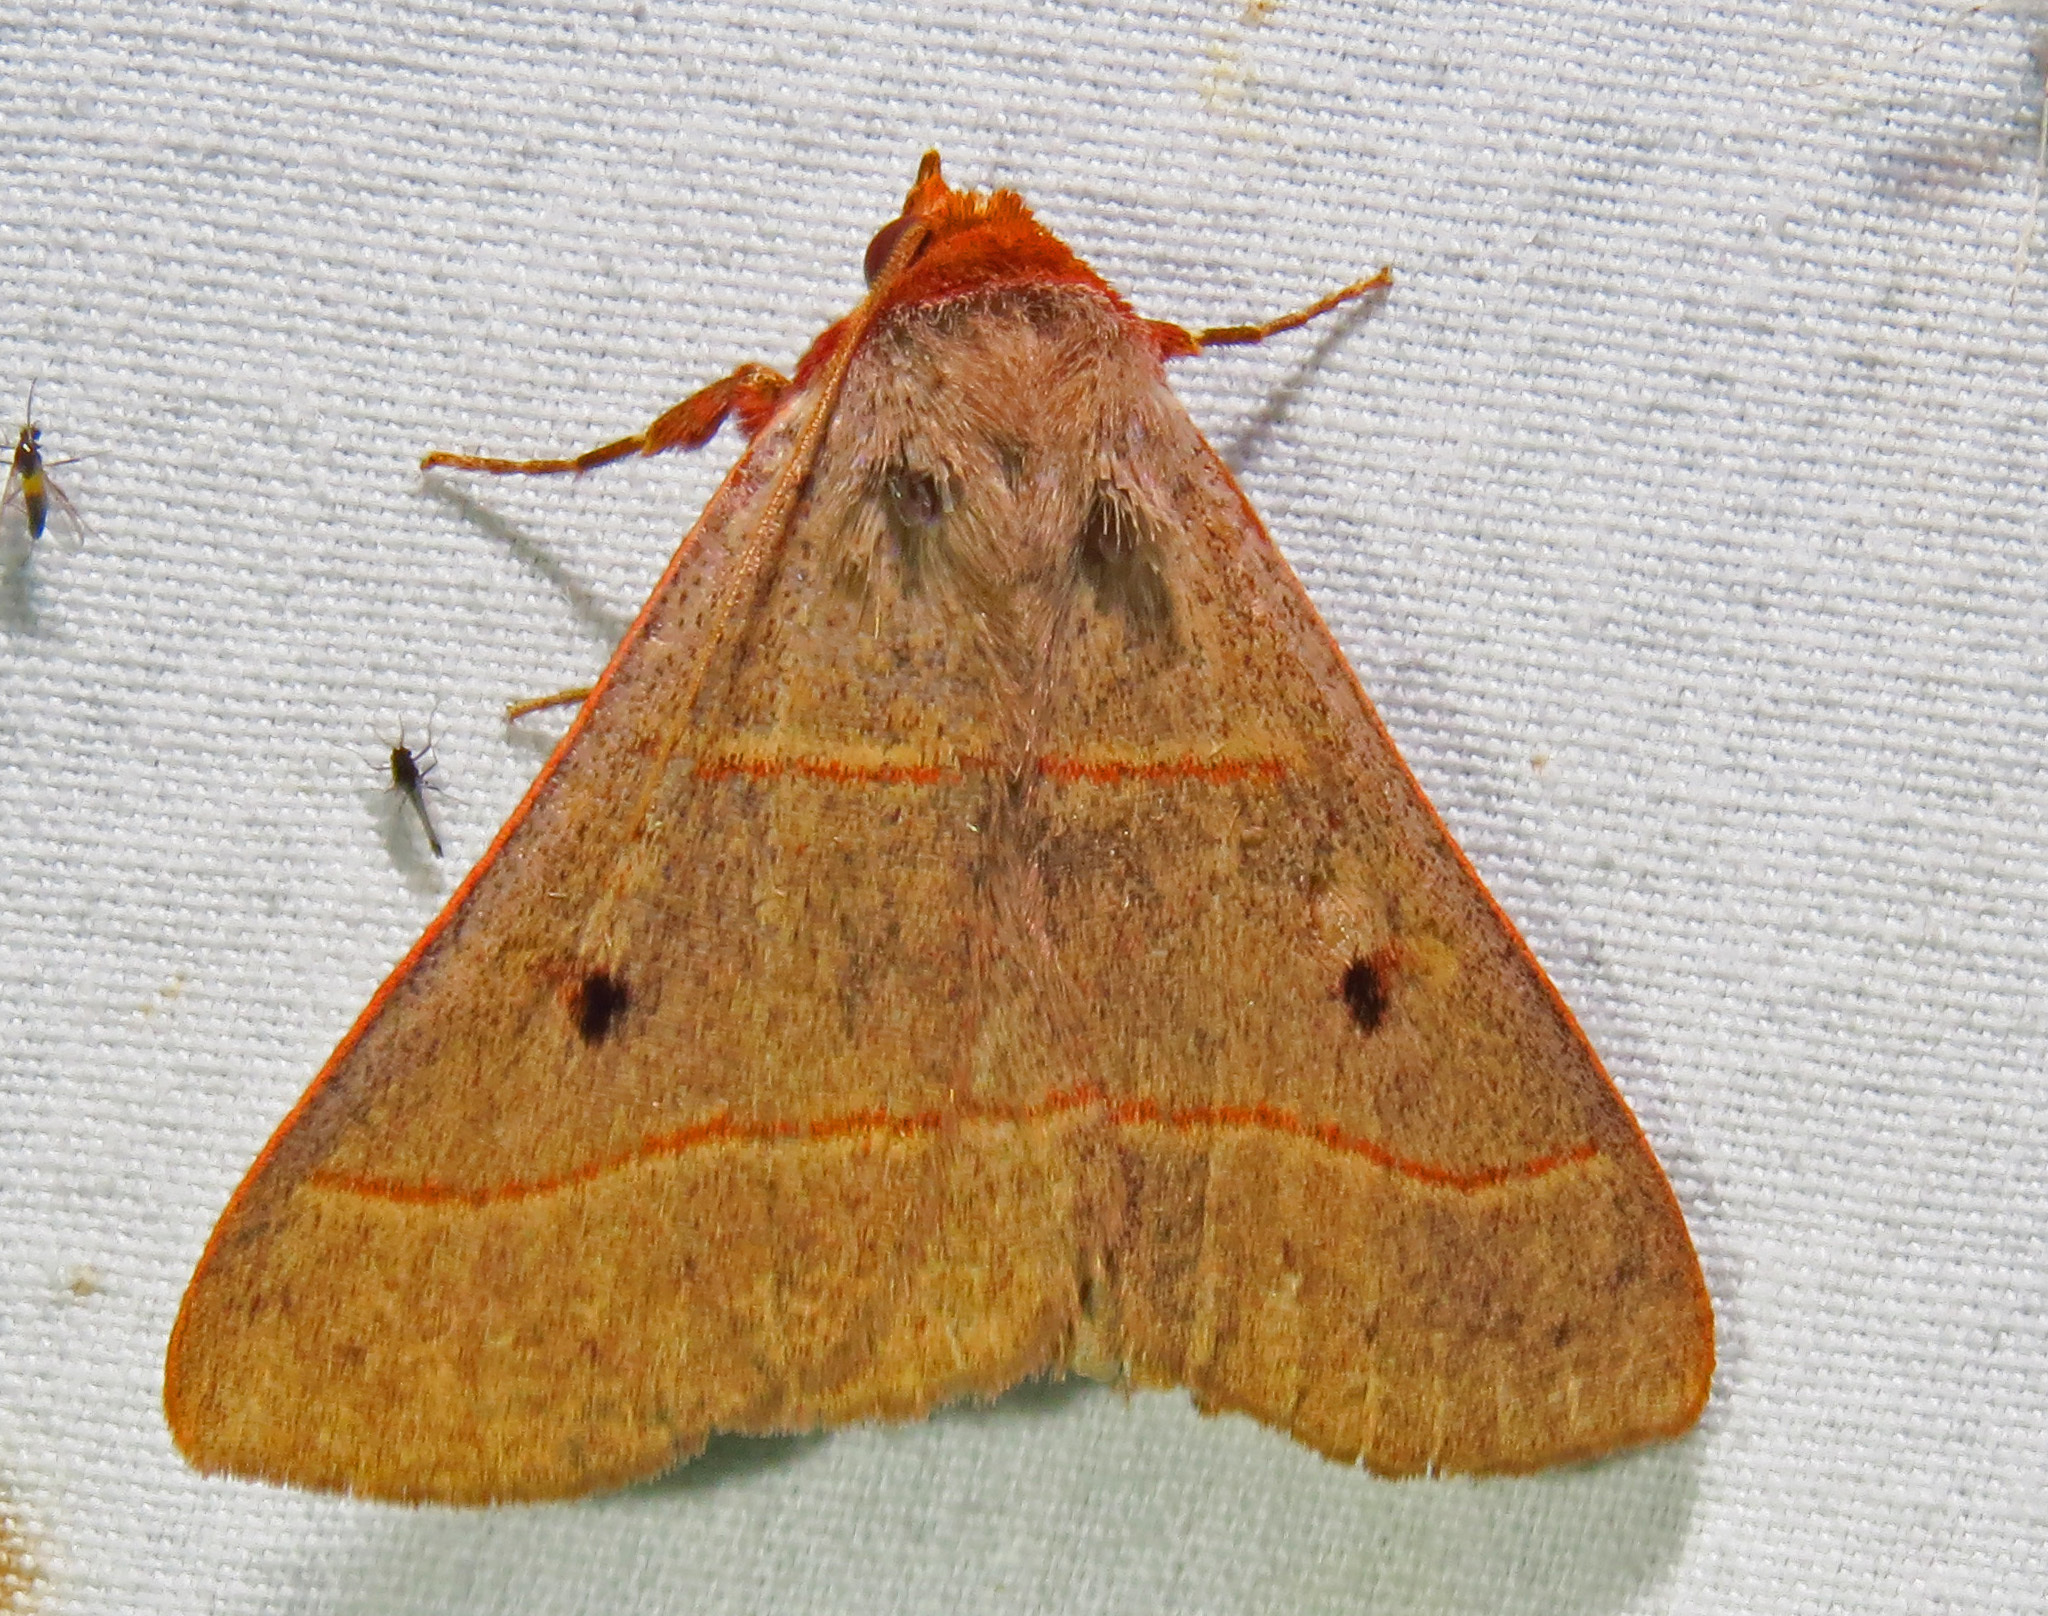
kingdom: Animalia
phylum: Arthropoda
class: Insecta
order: Lepidoptera
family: Erebidae
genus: Panopoda
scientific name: Panopoda rufimargo
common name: Red-lined panopoda moth
